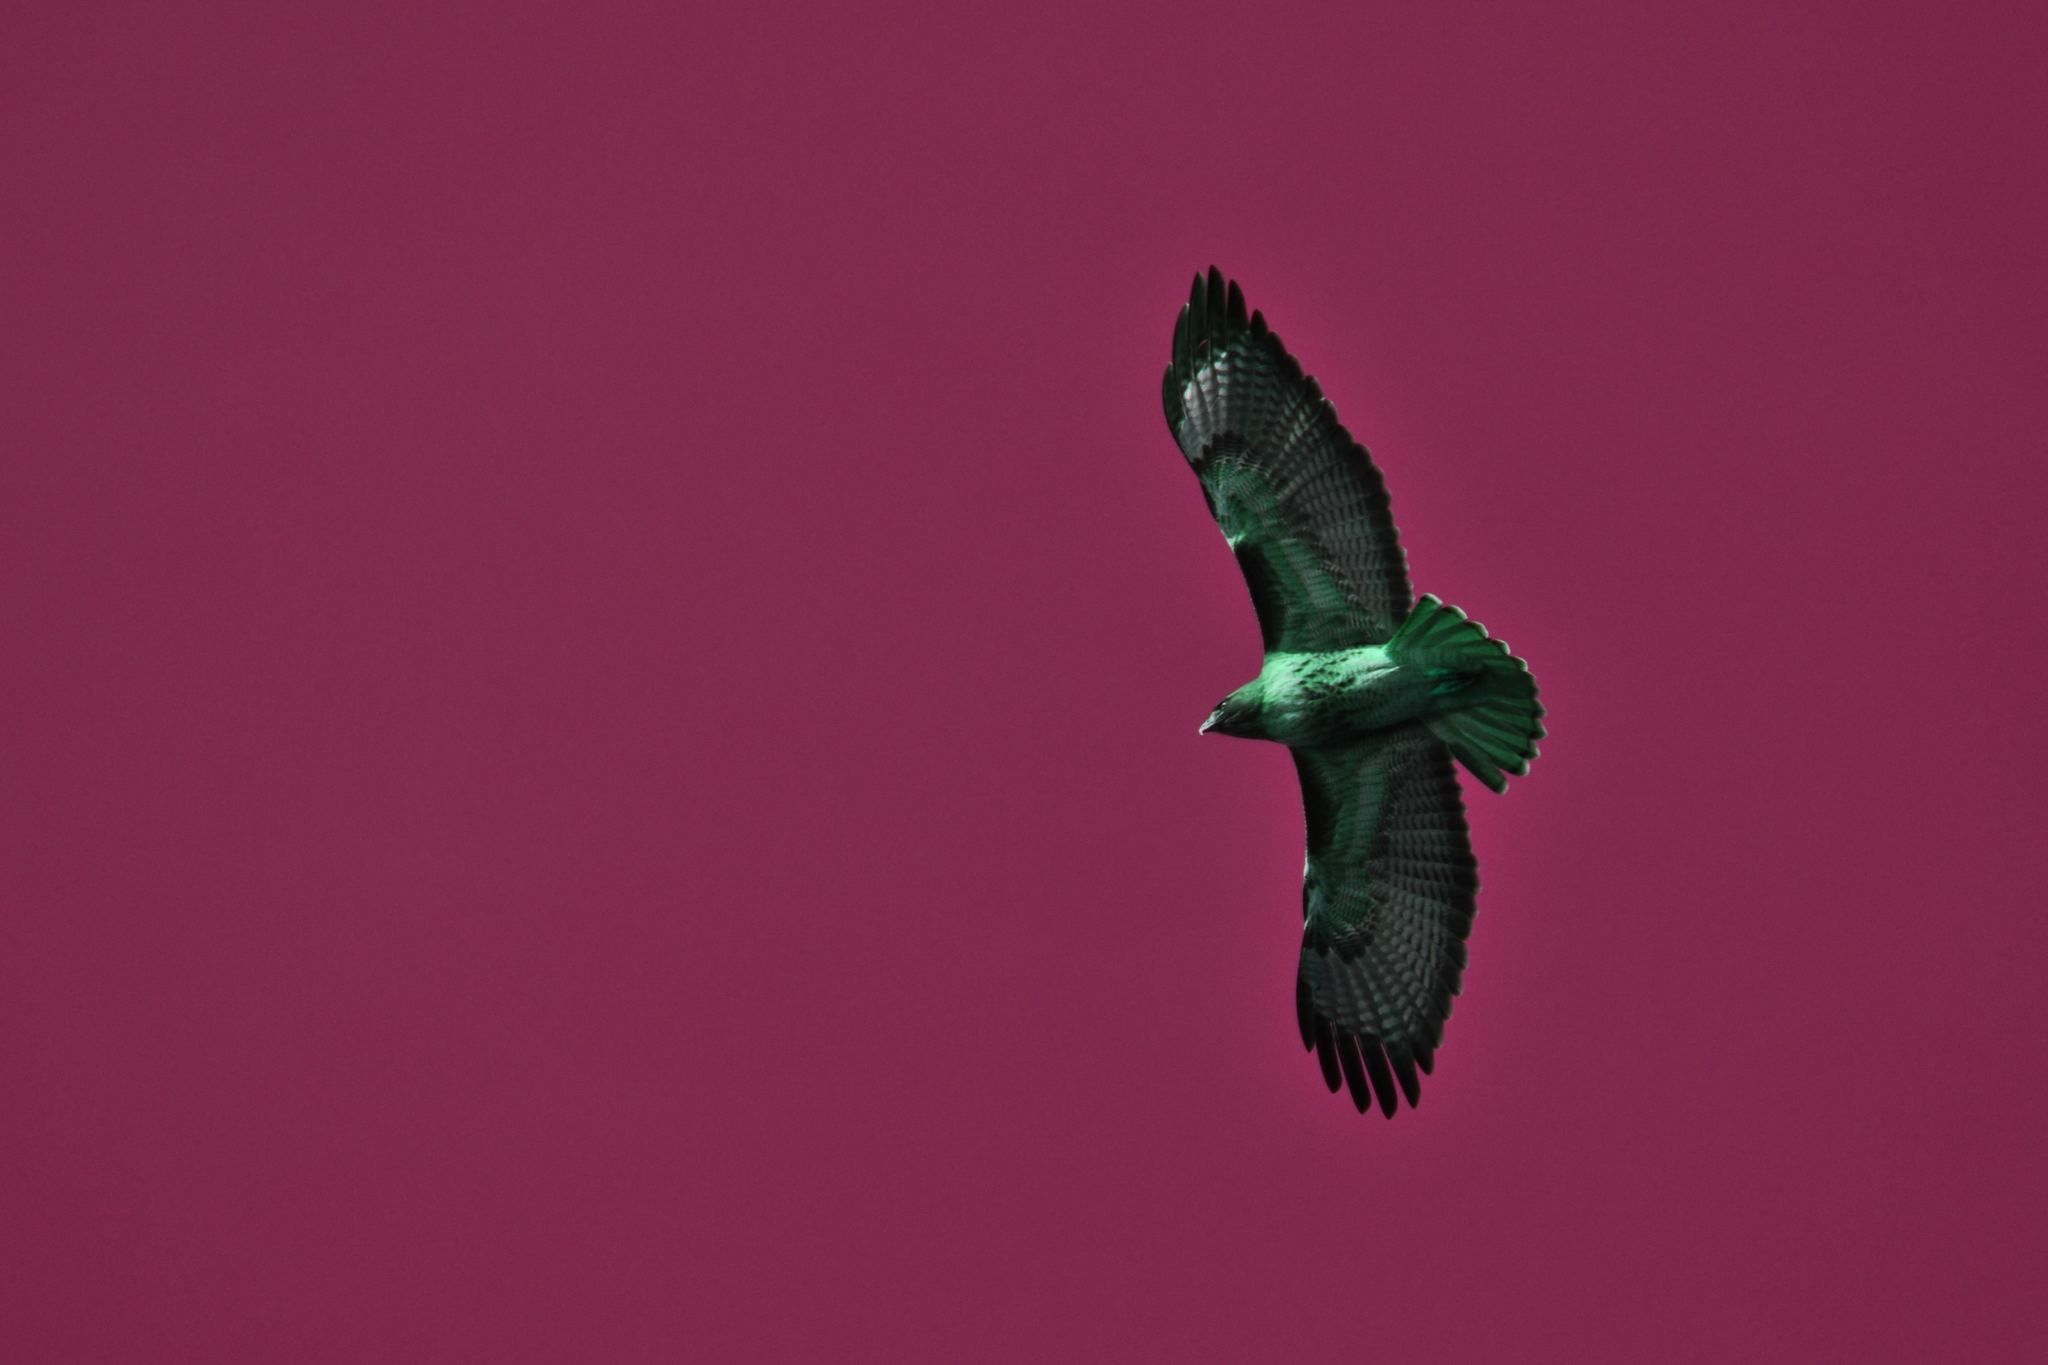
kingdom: Animalia
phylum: Chordata
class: Aves
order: Accipitriformes
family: Accipitridae
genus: Buteo
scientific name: Buteo jamaicensis
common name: Red-tailed hawk
